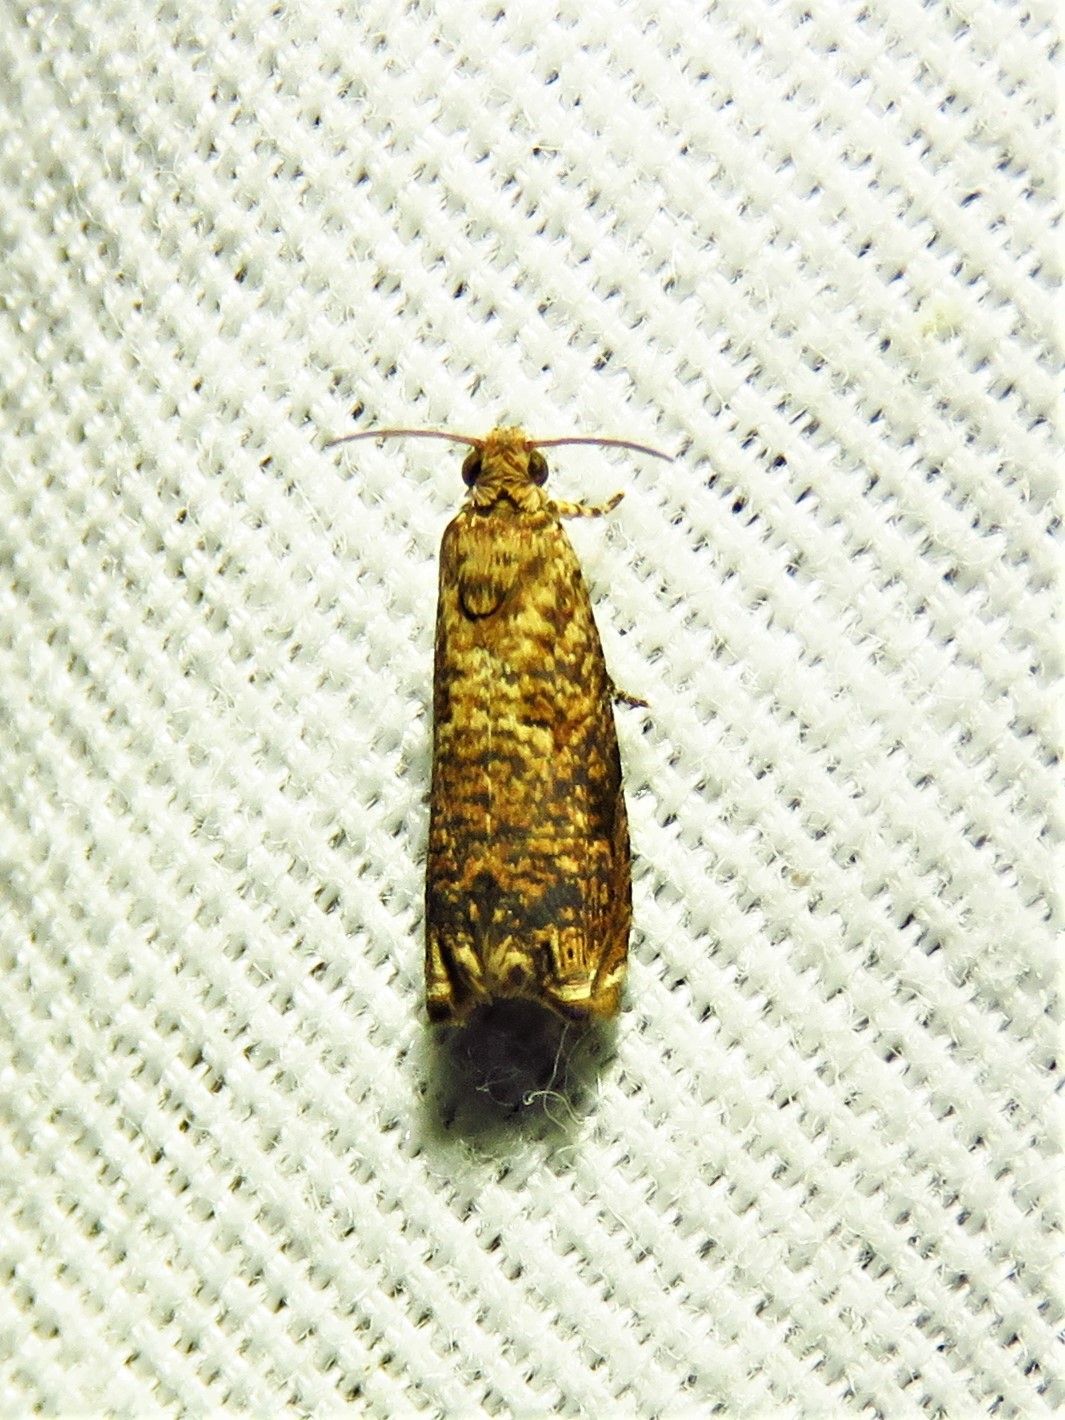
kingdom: Animalia
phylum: Arthropoda
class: Insecta
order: Lepidoptera
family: Tortricidae
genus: Episimus
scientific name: Episimus argutana
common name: Sumac leaftier moth
